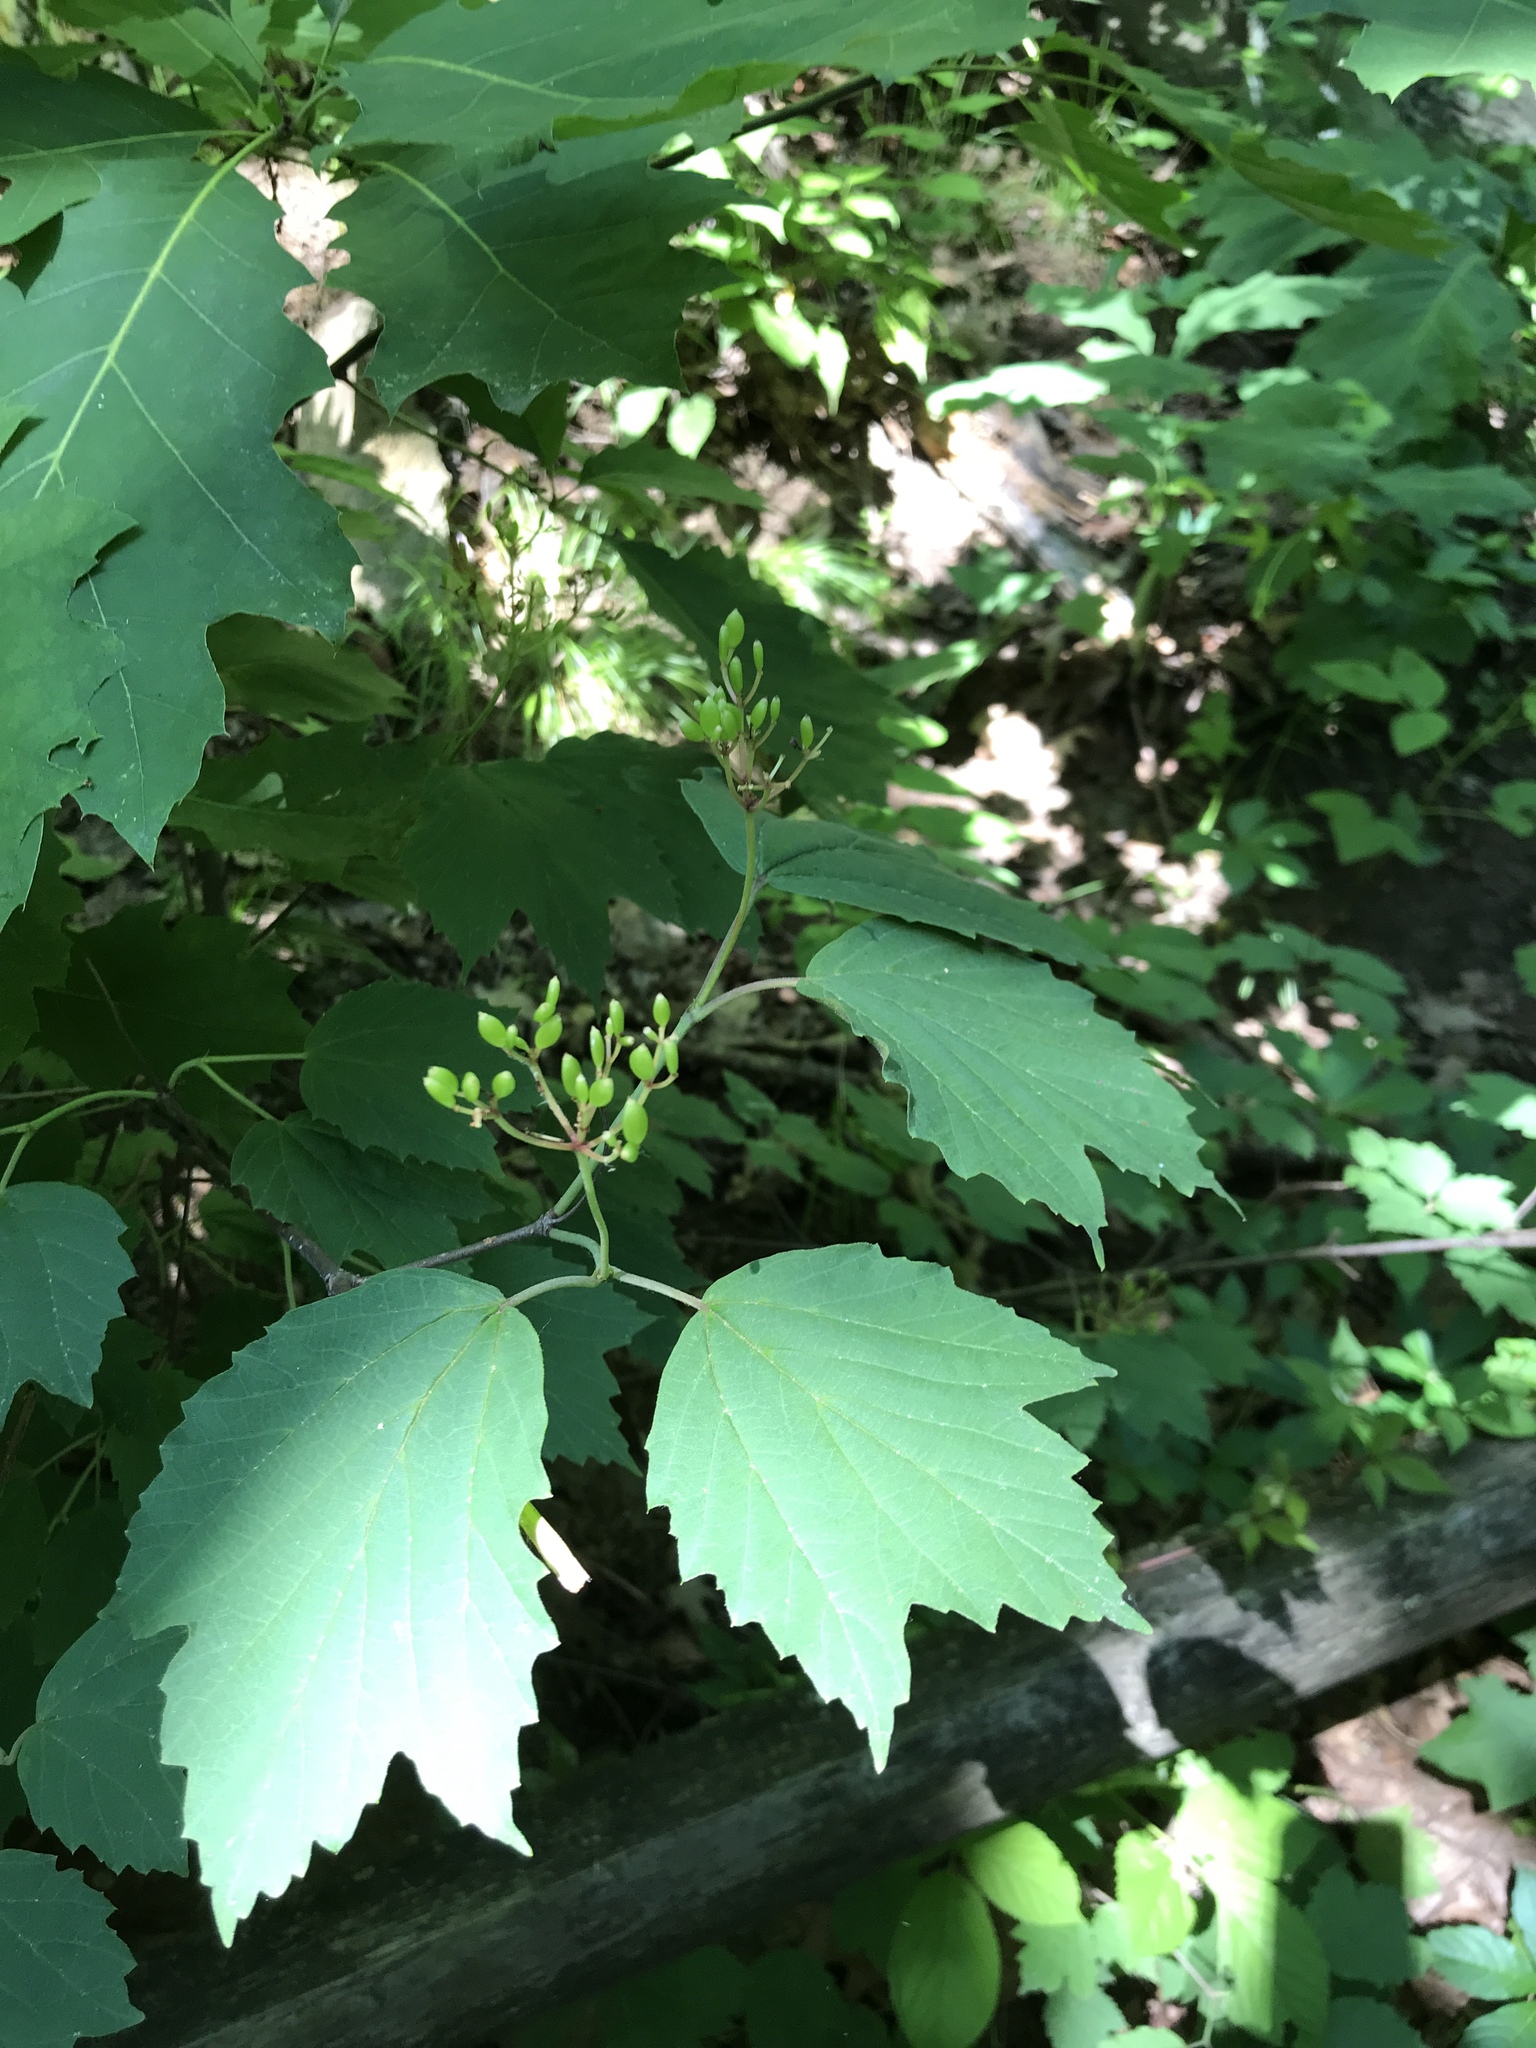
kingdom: Plantae
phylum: Tracheophyta
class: Magnoliopsida
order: Dipsacales
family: Viburnaceae
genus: Viburnum
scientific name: Viburnum acerifolium
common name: Dockmackie
